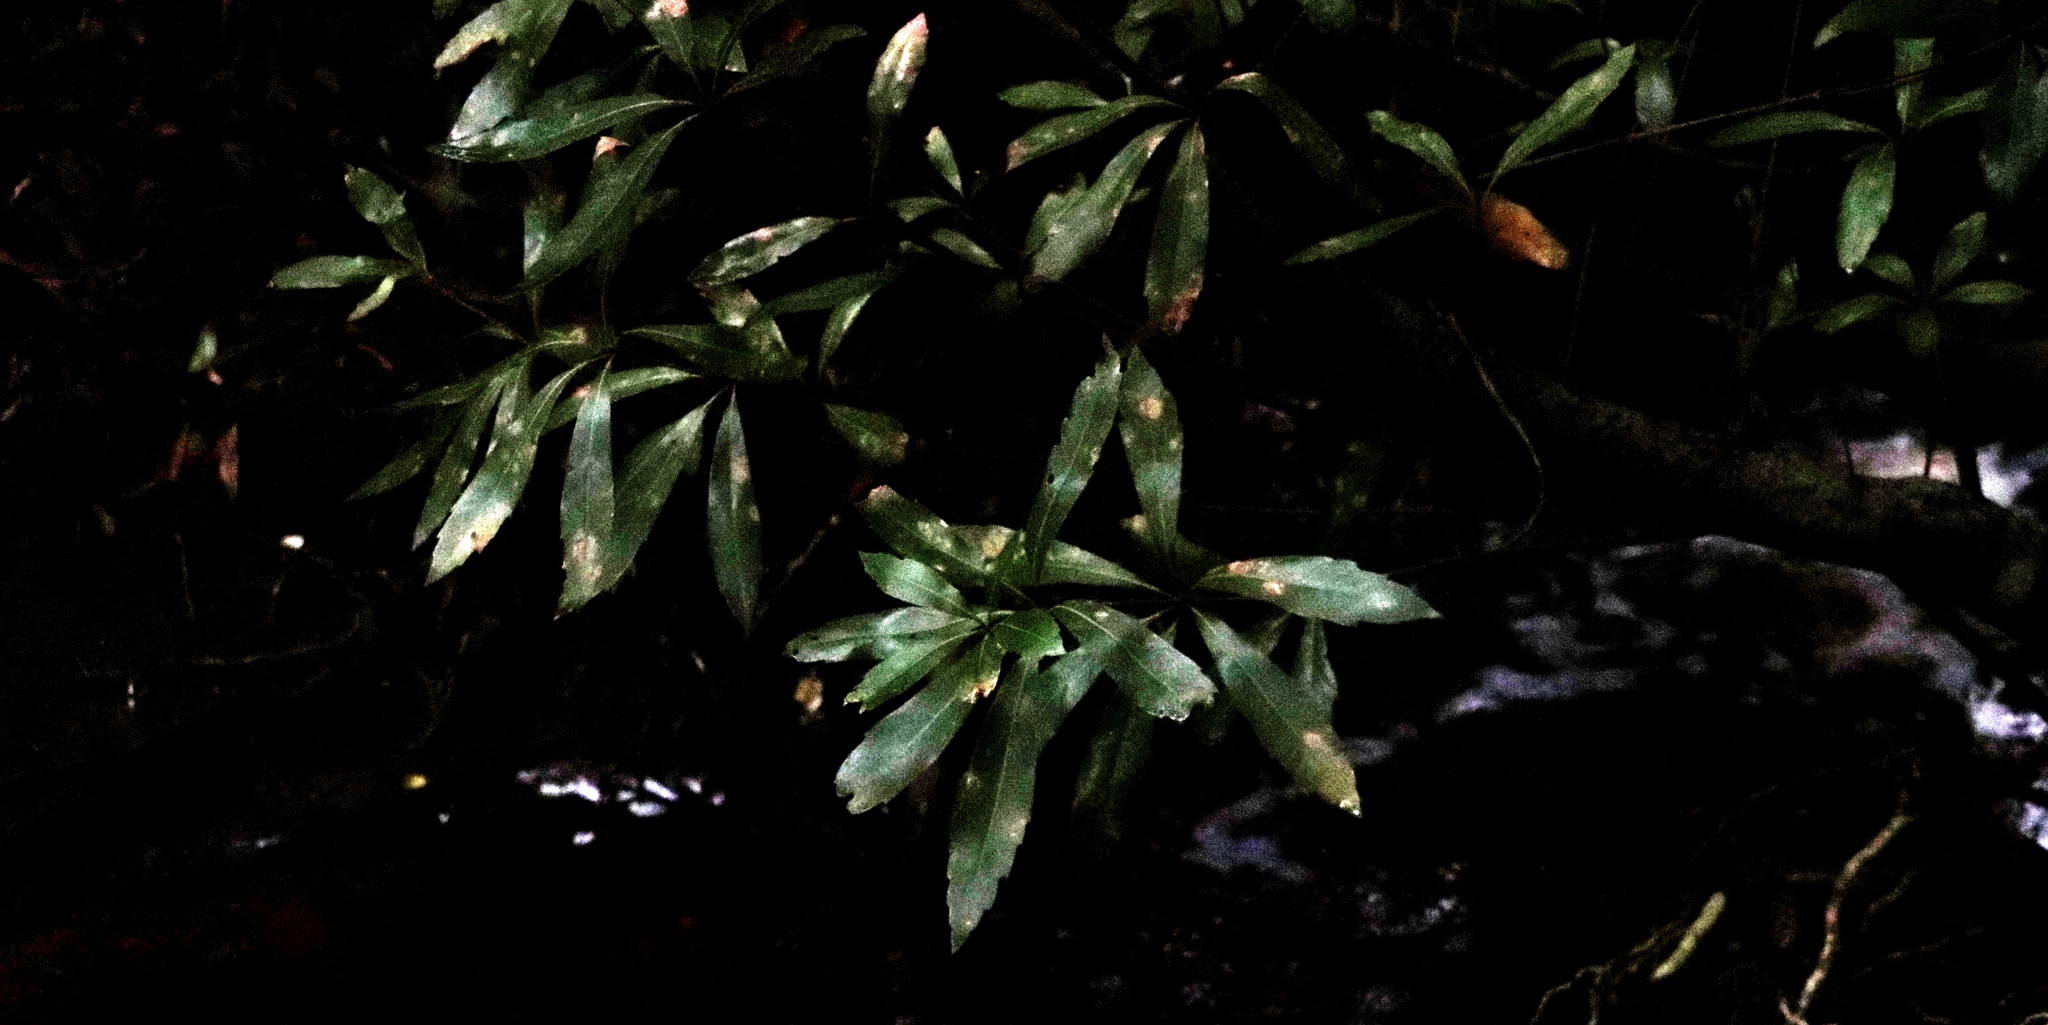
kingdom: Plantae
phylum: Tracheophyta
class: Magnoliopsida
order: Proteales
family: Proteaceae
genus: Brabejum
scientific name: Brabejum stellatifolium
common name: Wild almond
